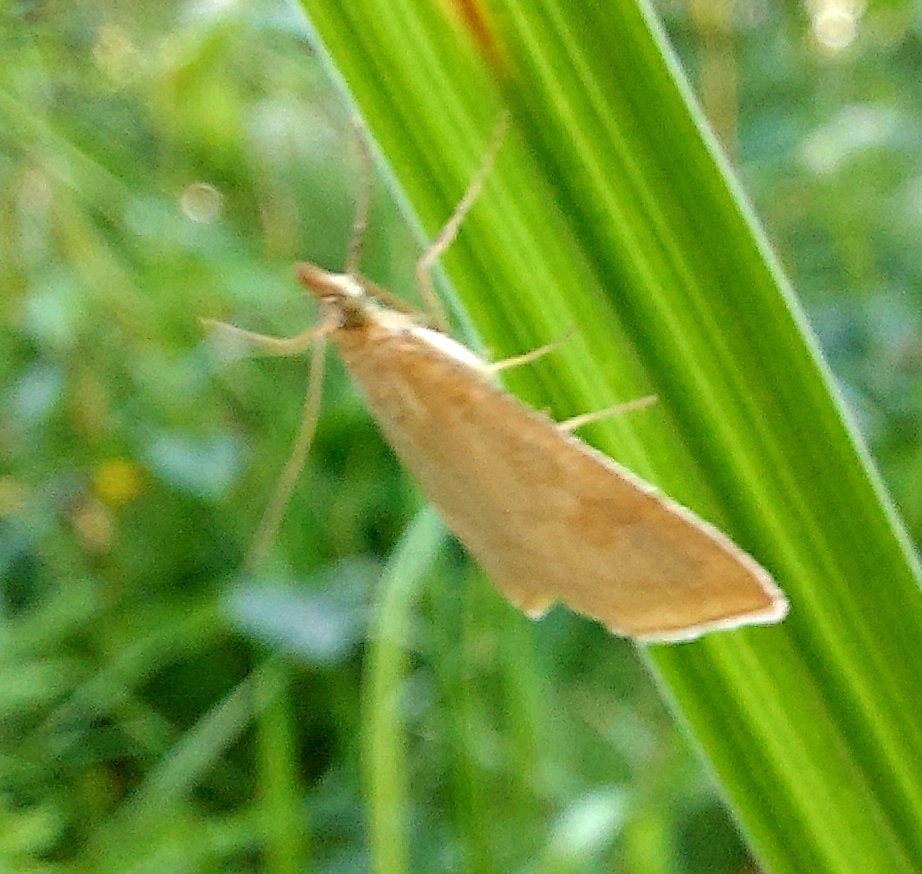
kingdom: Animalia
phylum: Arthropoda
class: Insecta
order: Lepidoptera
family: Crambidae
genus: Udea
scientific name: Udea lutealis
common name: Pale straw pearl
